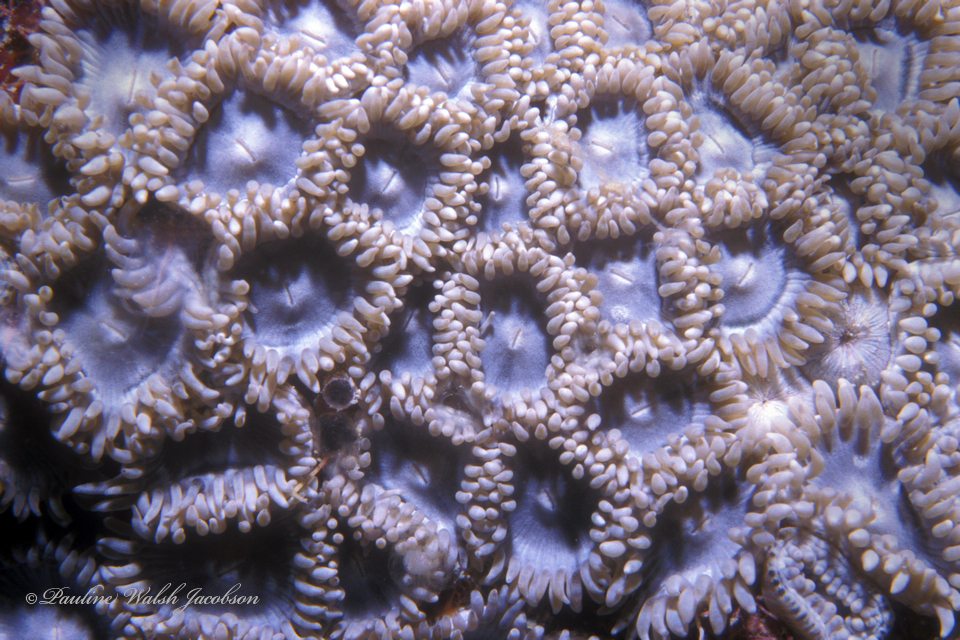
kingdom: Animalia
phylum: Cnidaria
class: Anthozoa
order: Zoantharia
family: Zoanthidae
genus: Zoanthus
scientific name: Zoanthus pulchellus
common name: Mat zoanthid
